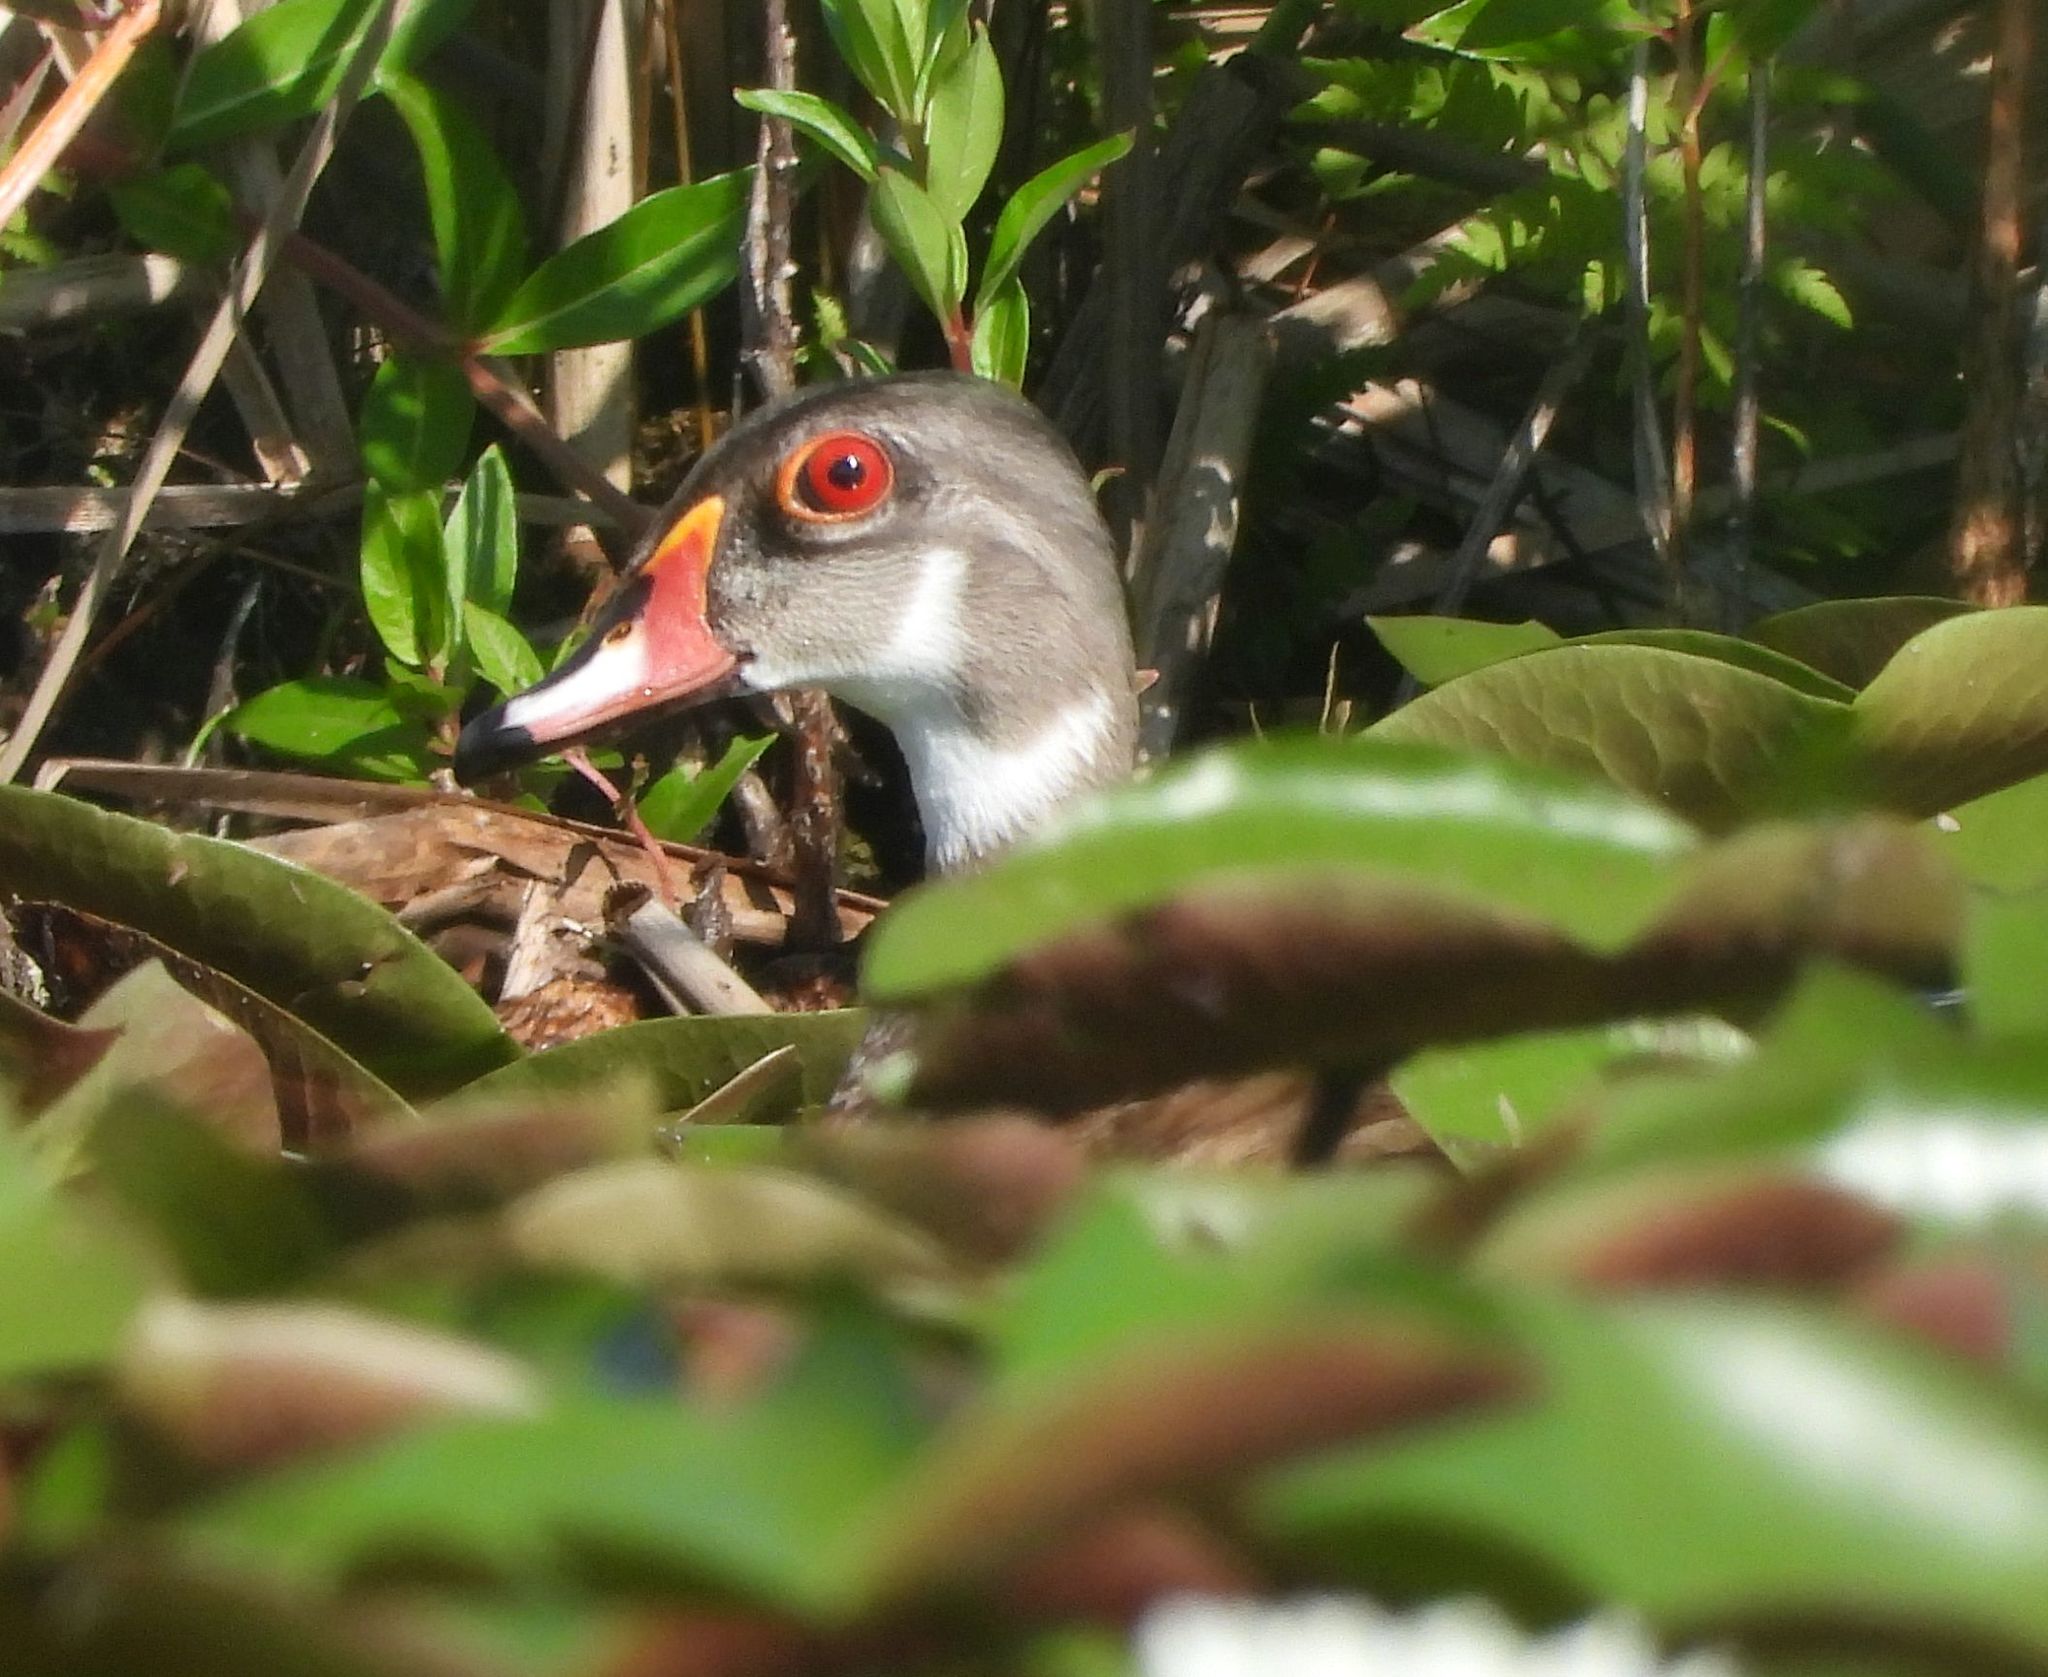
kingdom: Animalia
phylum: Chordata
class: Aves
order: Anseriformes
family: Anatidae
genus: Aix
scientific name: Aix sponsa
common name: Wood duck
